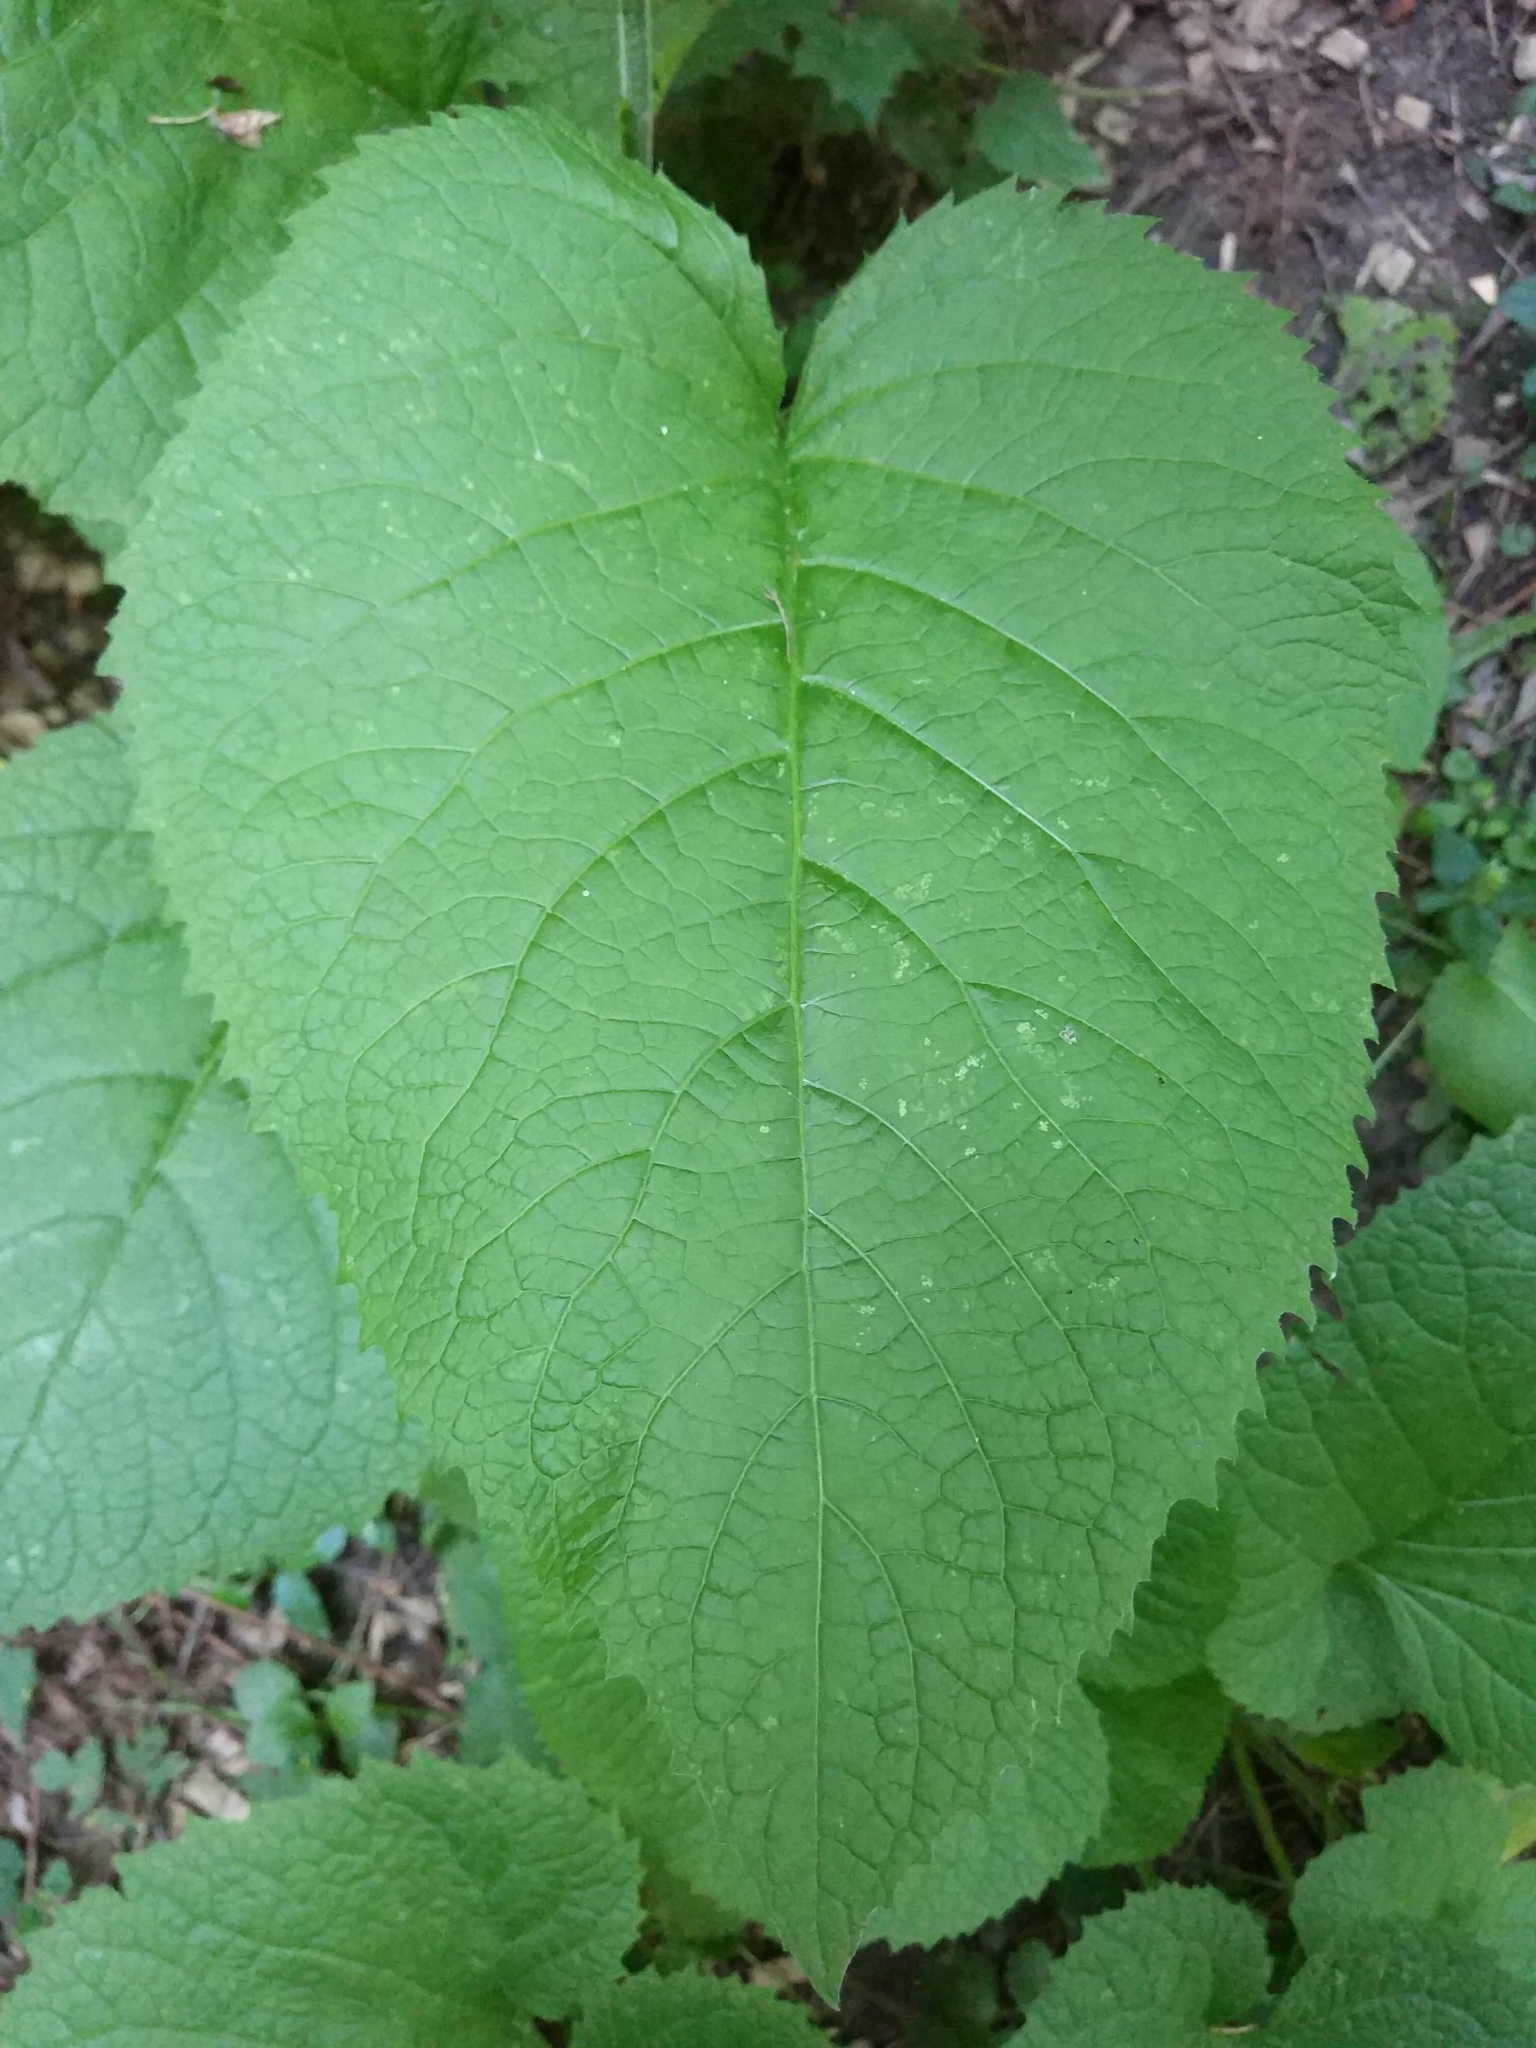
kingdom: Plantae
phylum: Tracheophyta
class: Magnoliopsida
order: Asterales
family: Asteraceae
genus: Telekia
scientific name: Telekia speciosa
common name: Yellow oxeye
